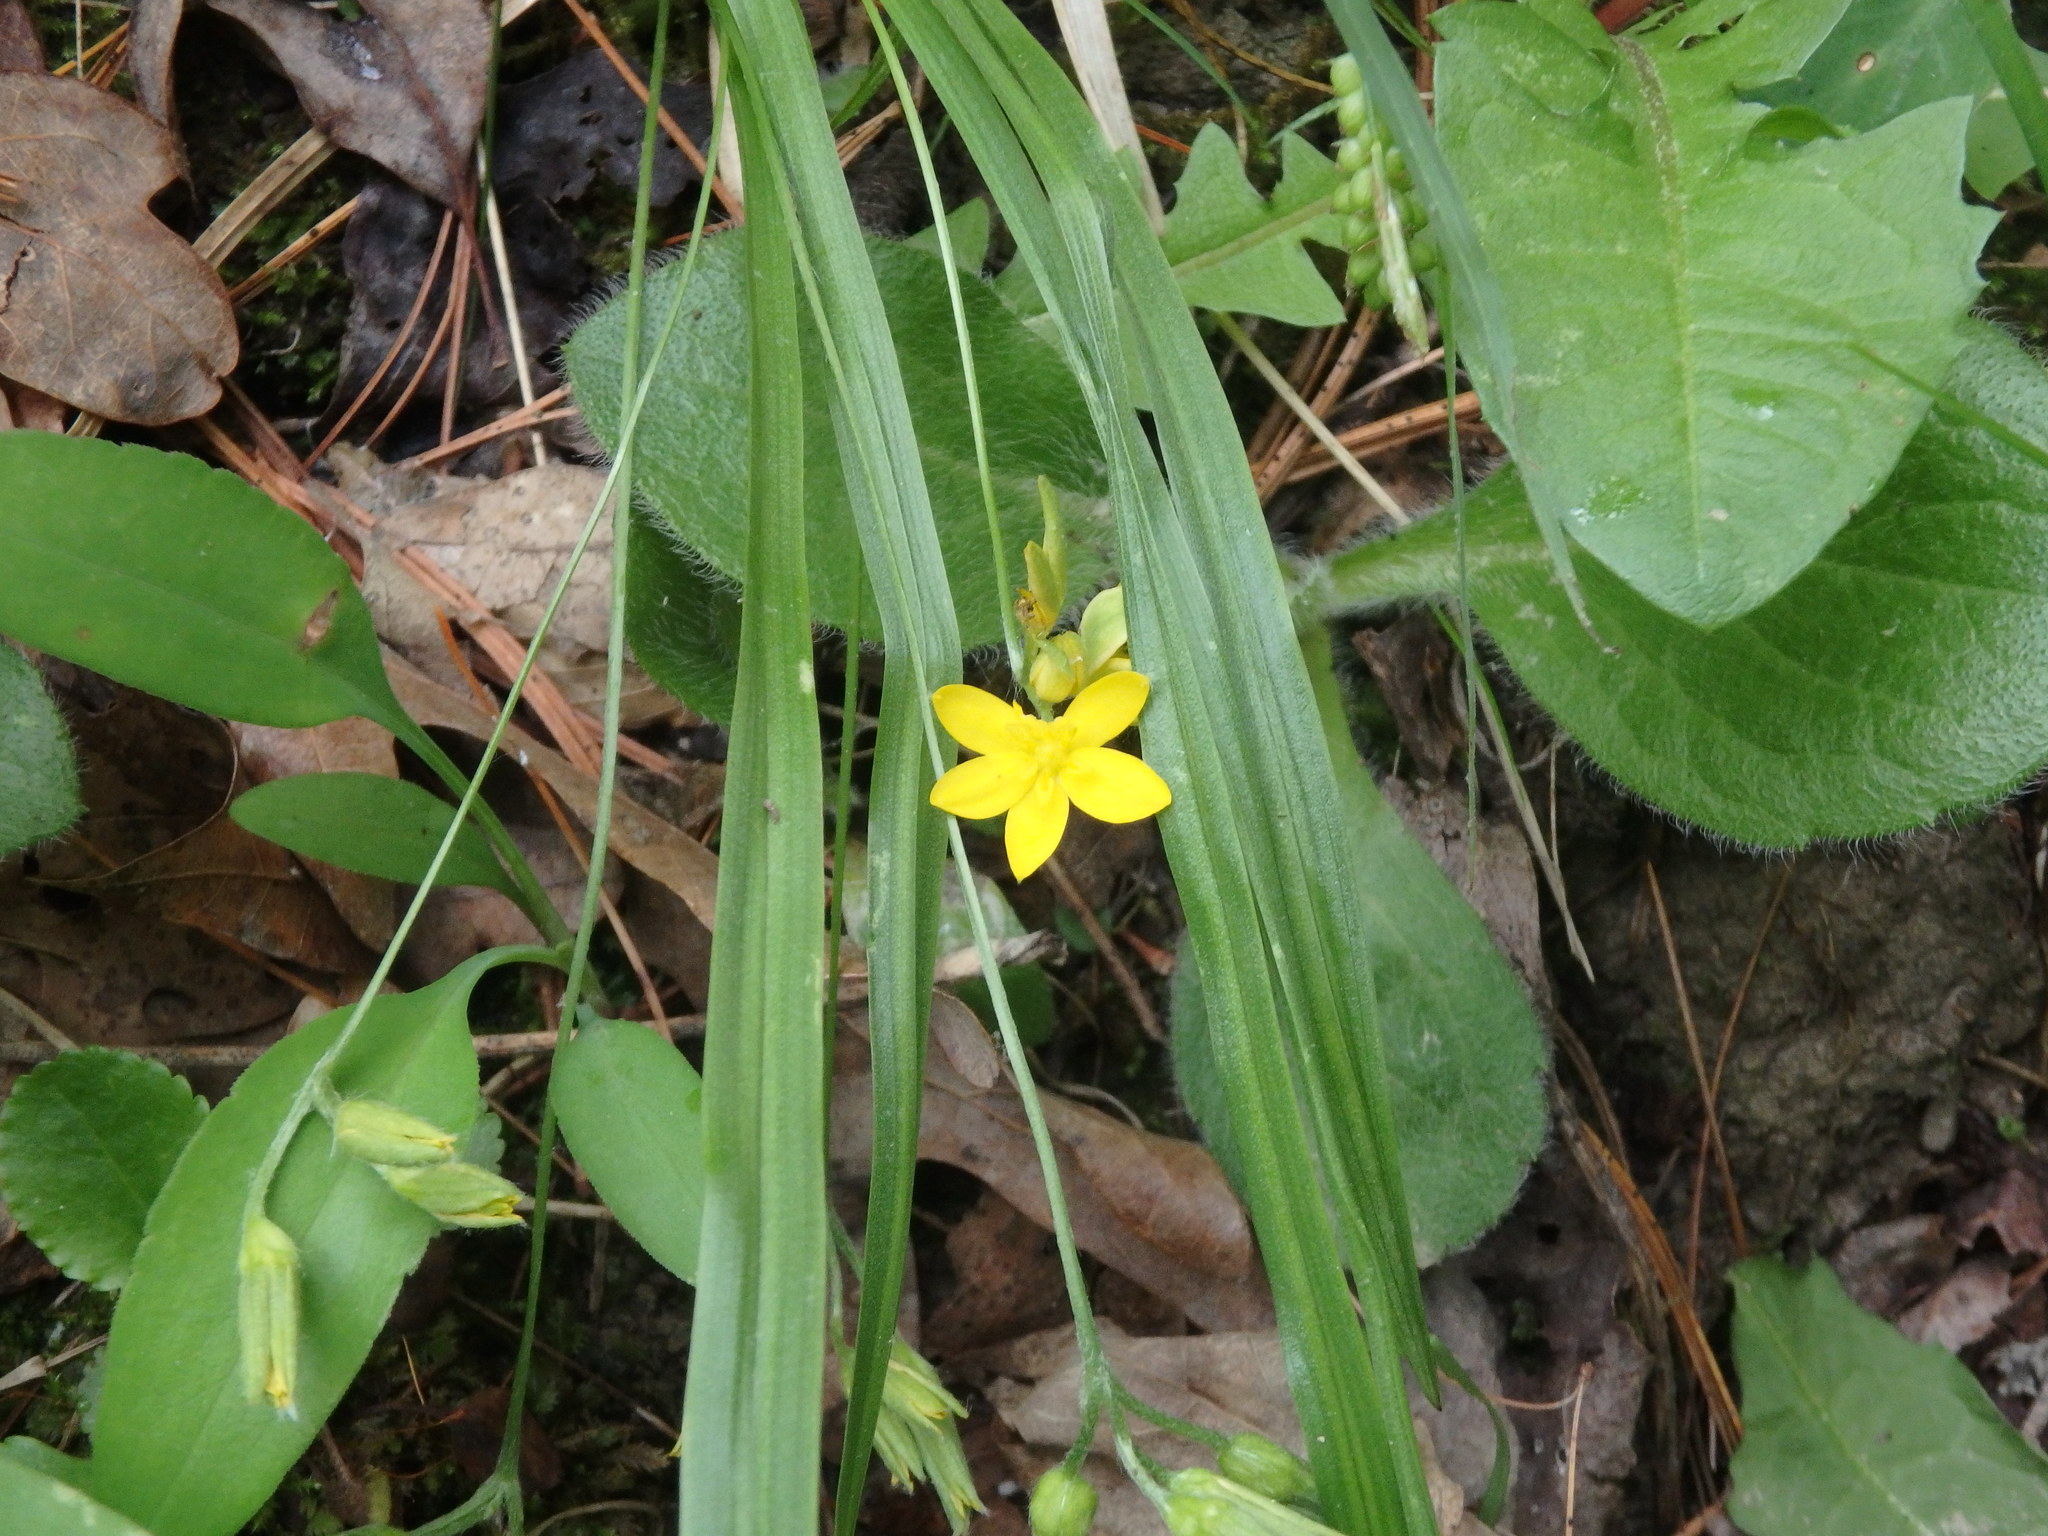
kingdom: Plantae
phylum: Tracheophyta
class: Liliopsida
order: Asparagales
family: Hypoxidaceae
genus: Hypoxis
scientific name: Hypoxis hirsuta
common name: Common goldstar
